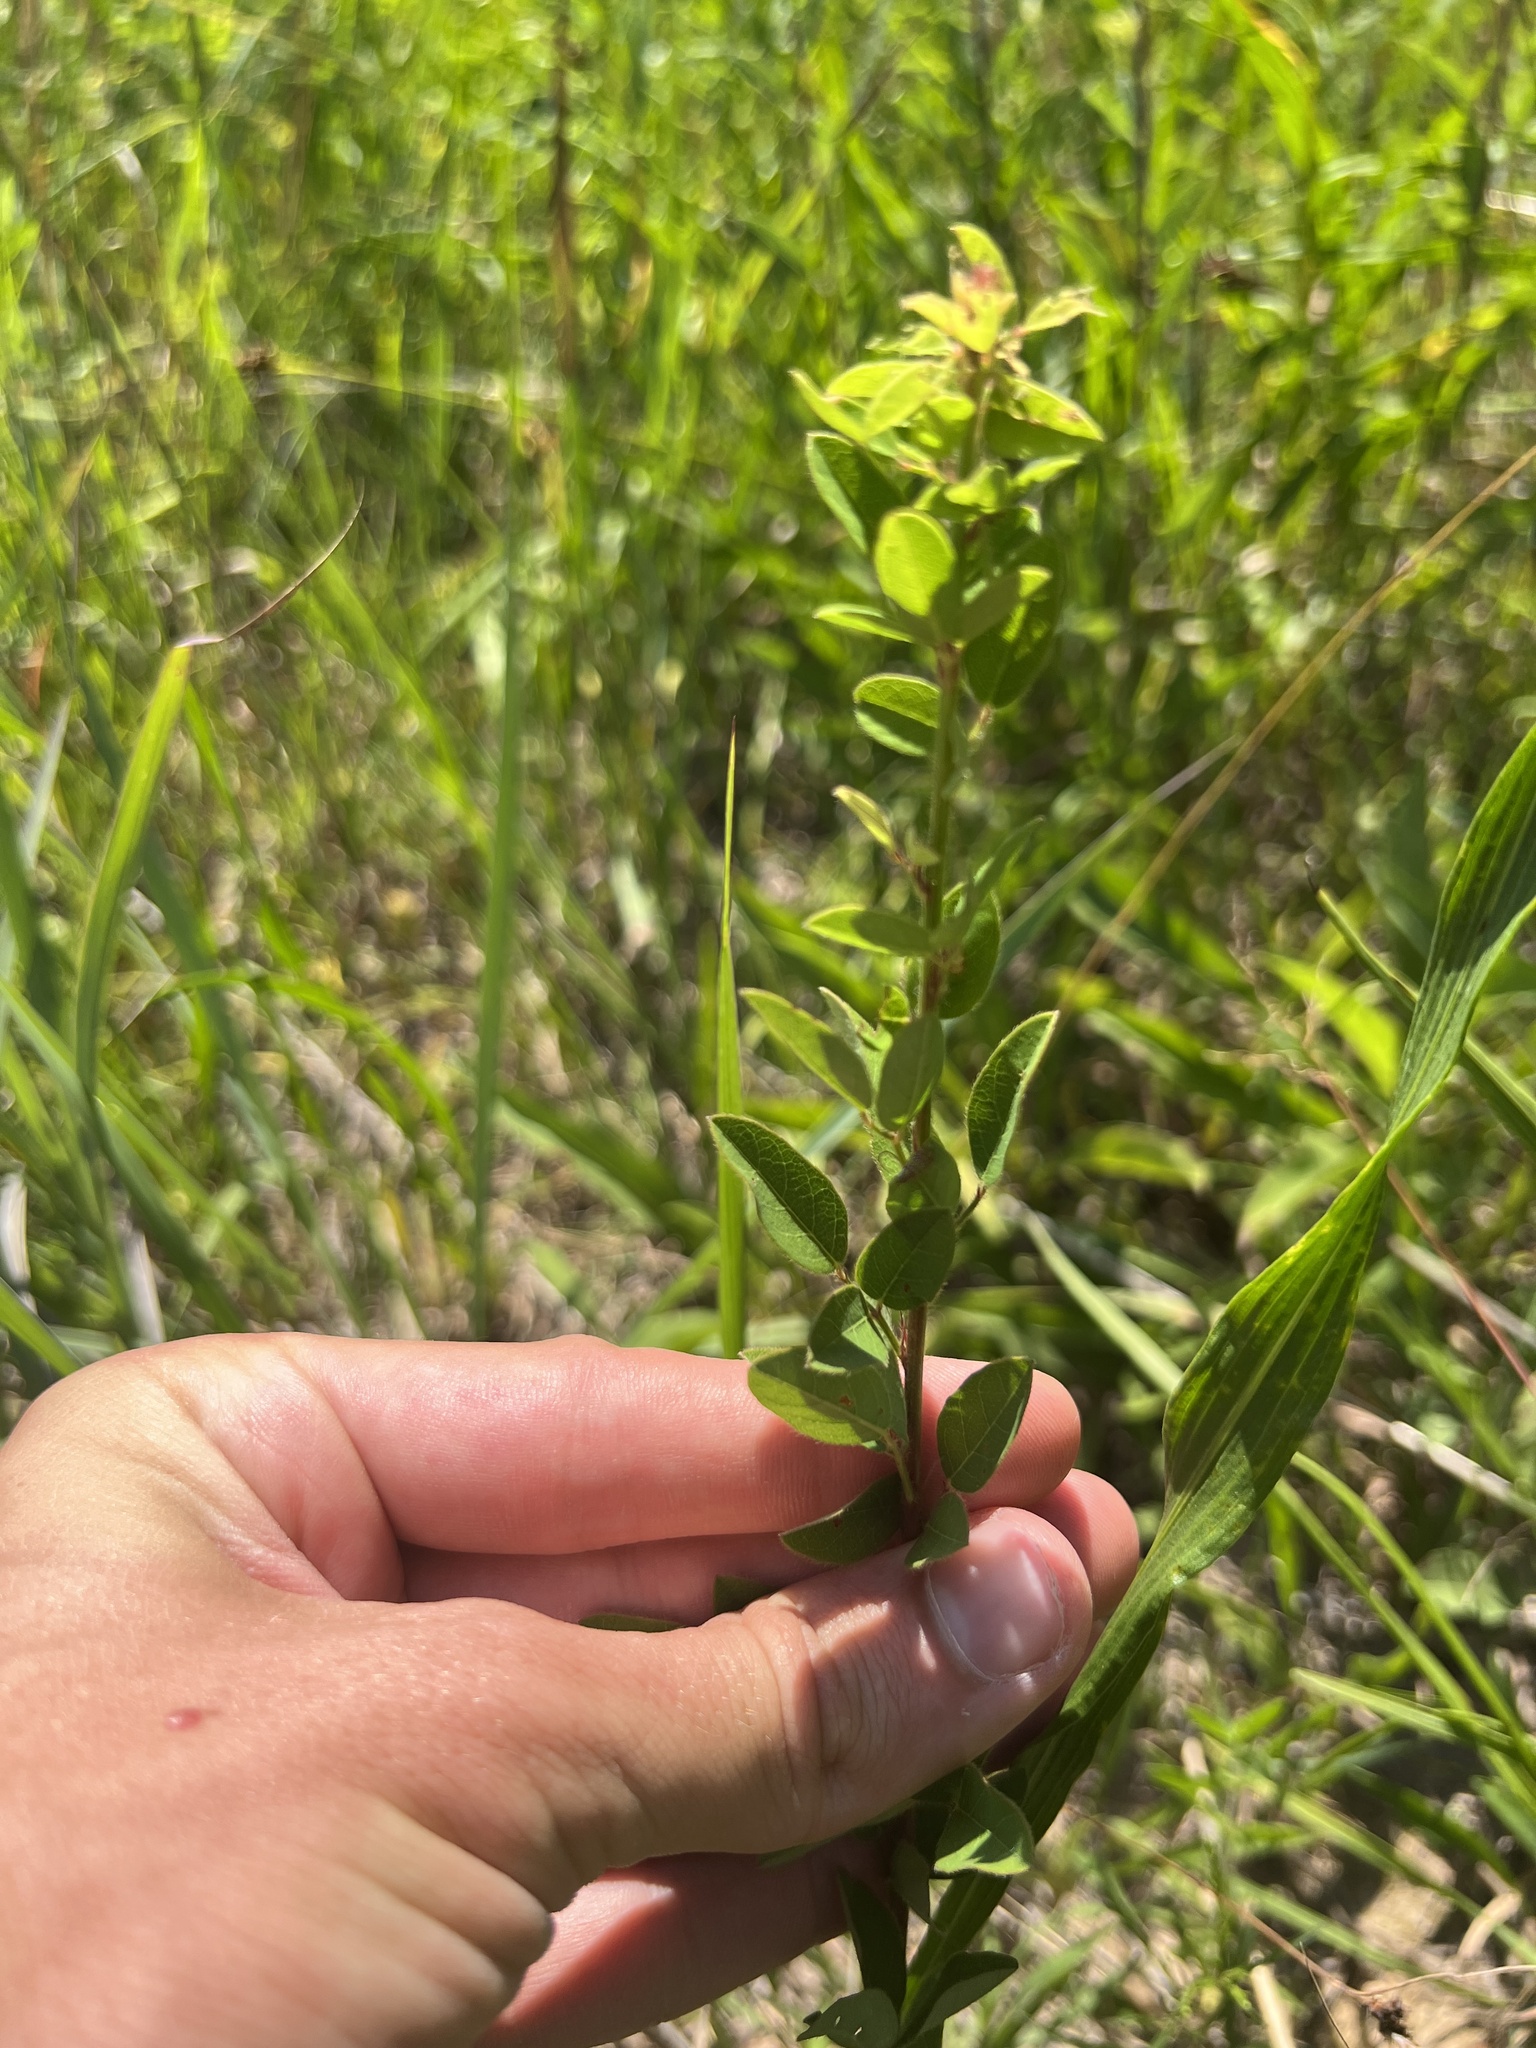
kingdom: Plantae
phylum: Tracheophyta
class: Magnoliopsida
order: Fabales
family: Fabaceae
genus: Desmodium
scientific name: Desmodium ciliare
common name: Hairy small-leaf ticktrefoil
